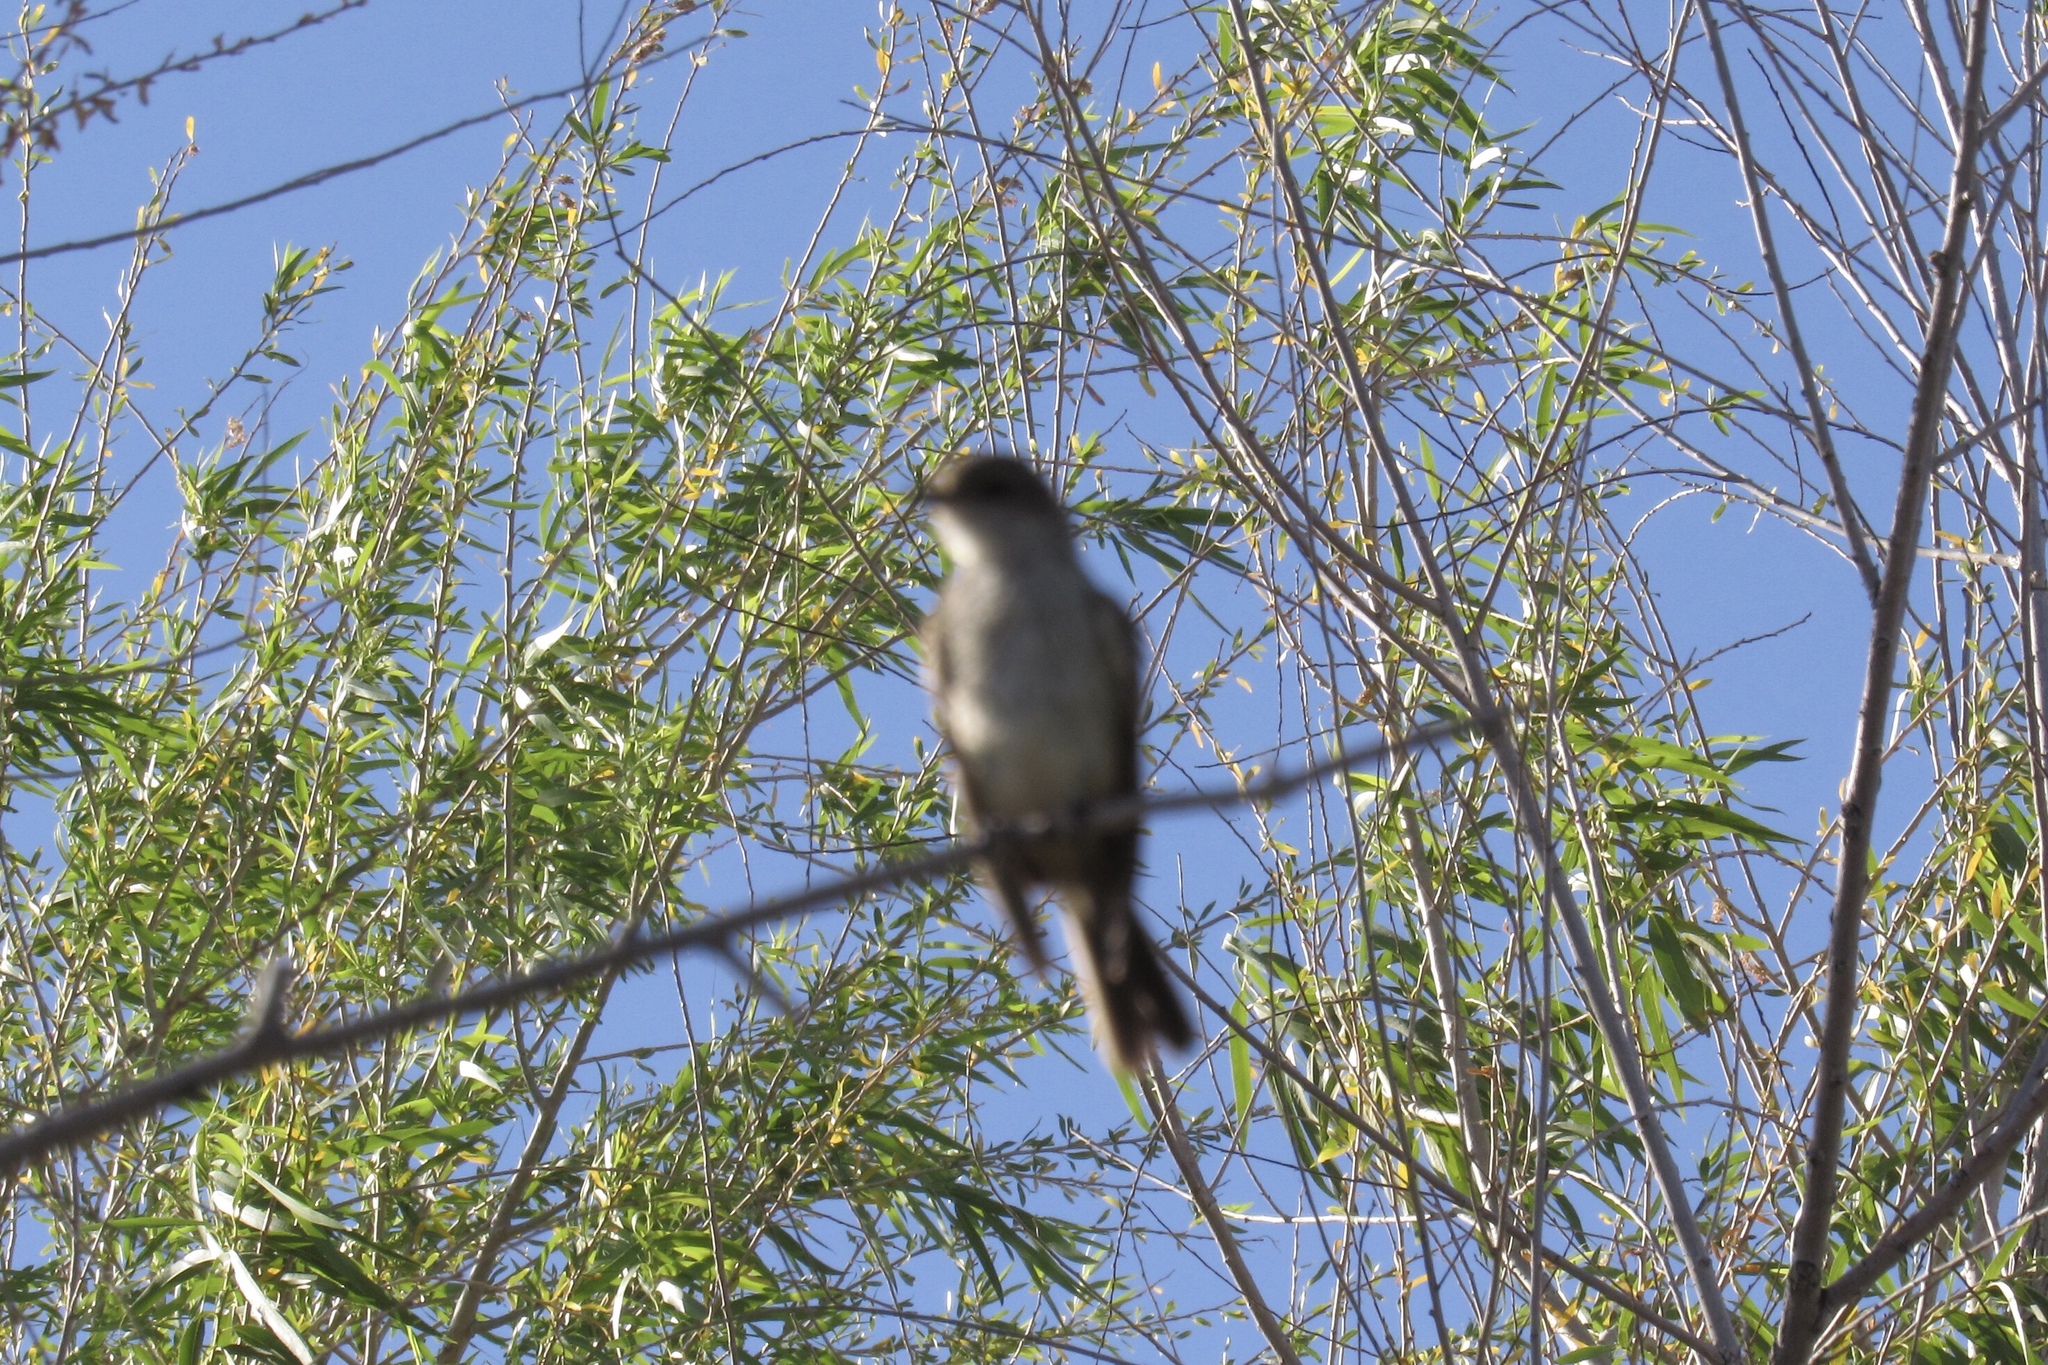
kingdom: Animalia
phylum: Chordata
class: Aves
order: Passeriformes
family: Tyrannidae
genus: Pyrocephalus
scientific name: Pyrocephalus rubinus
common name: Vermilion flycatcher
